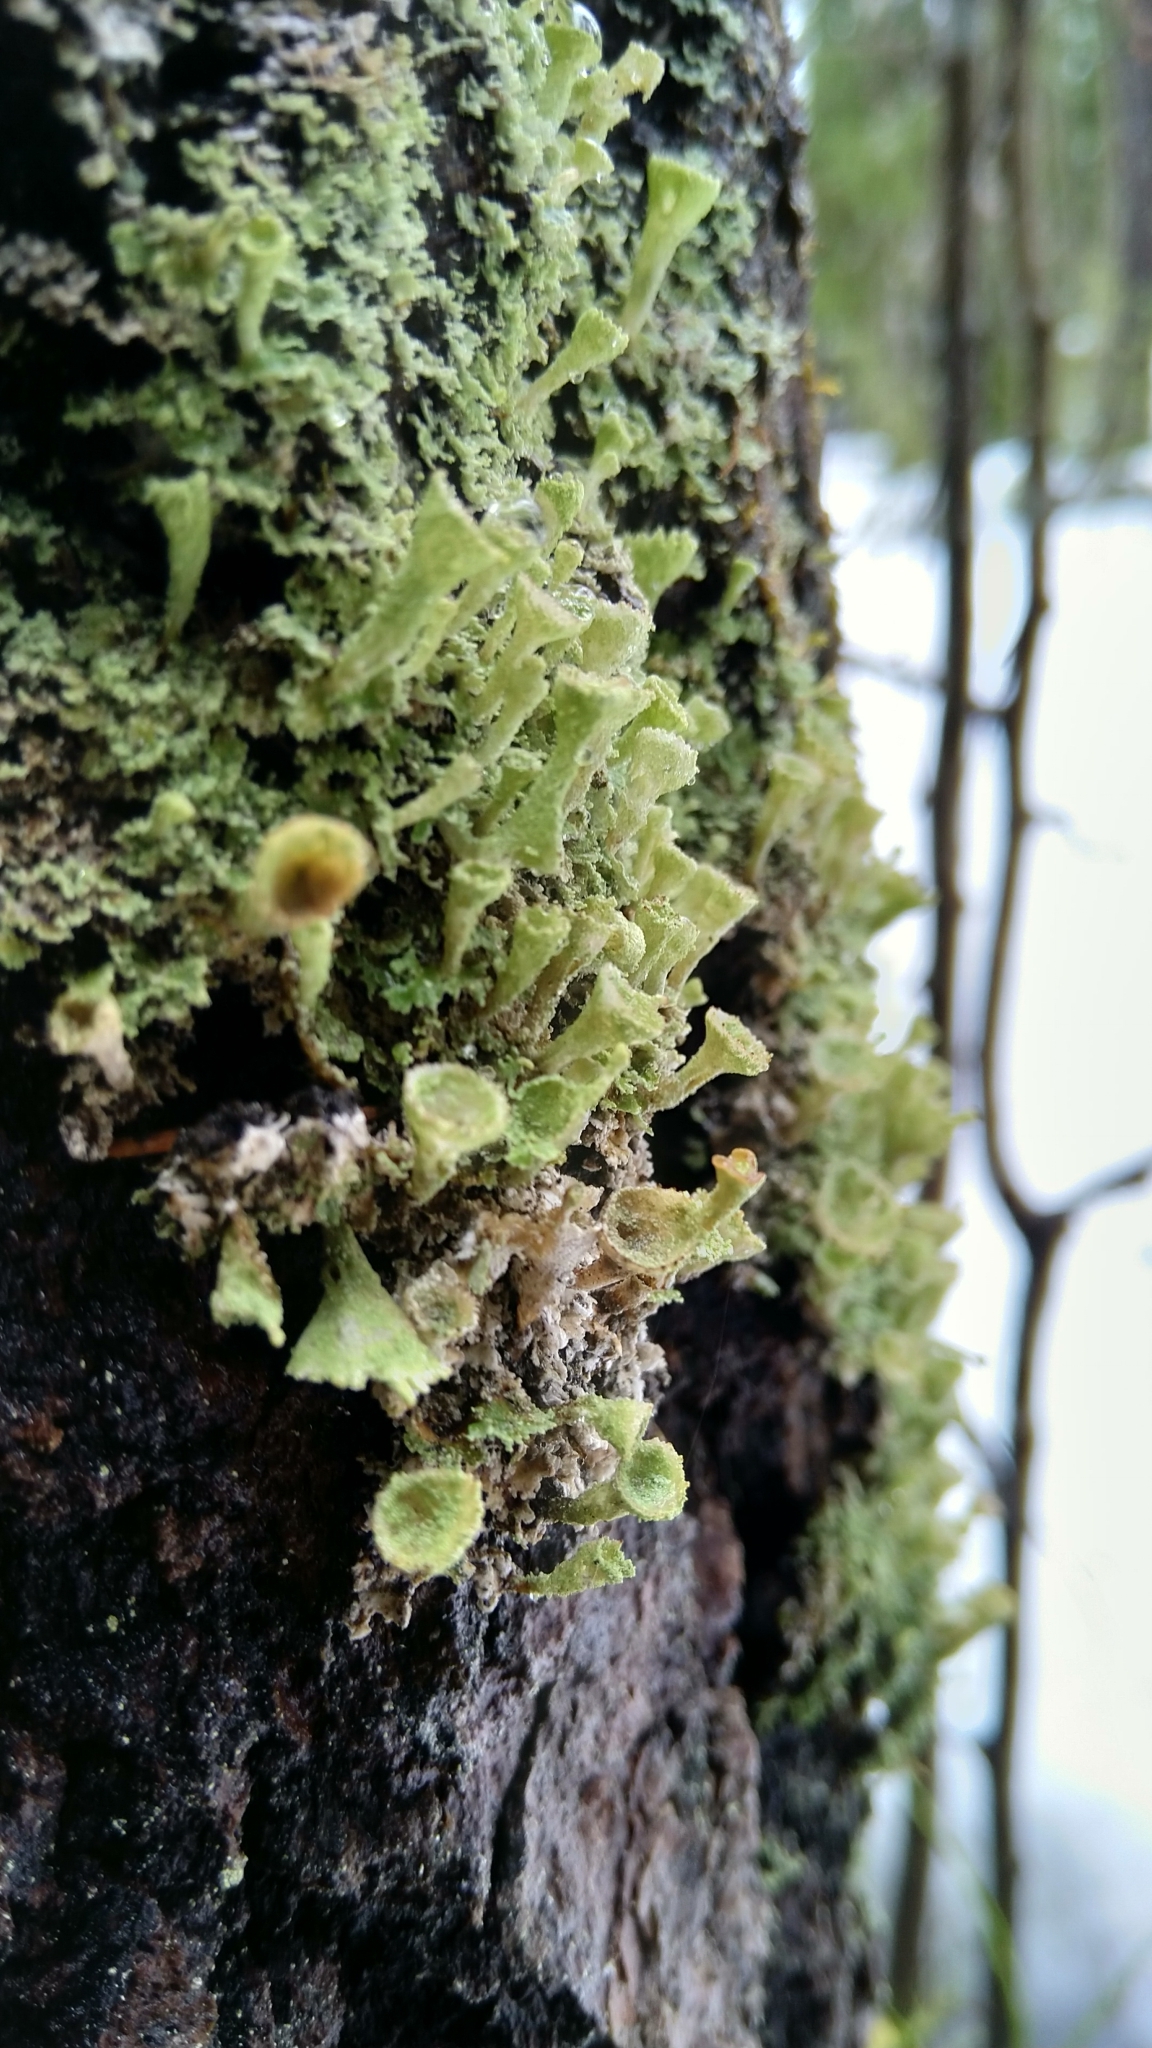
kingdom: Fungi
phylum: Ascomycota
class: Lecanoromycetes
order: Lecanorales
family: Cladoniaceae
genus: Cladonia
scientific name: Cladonia
